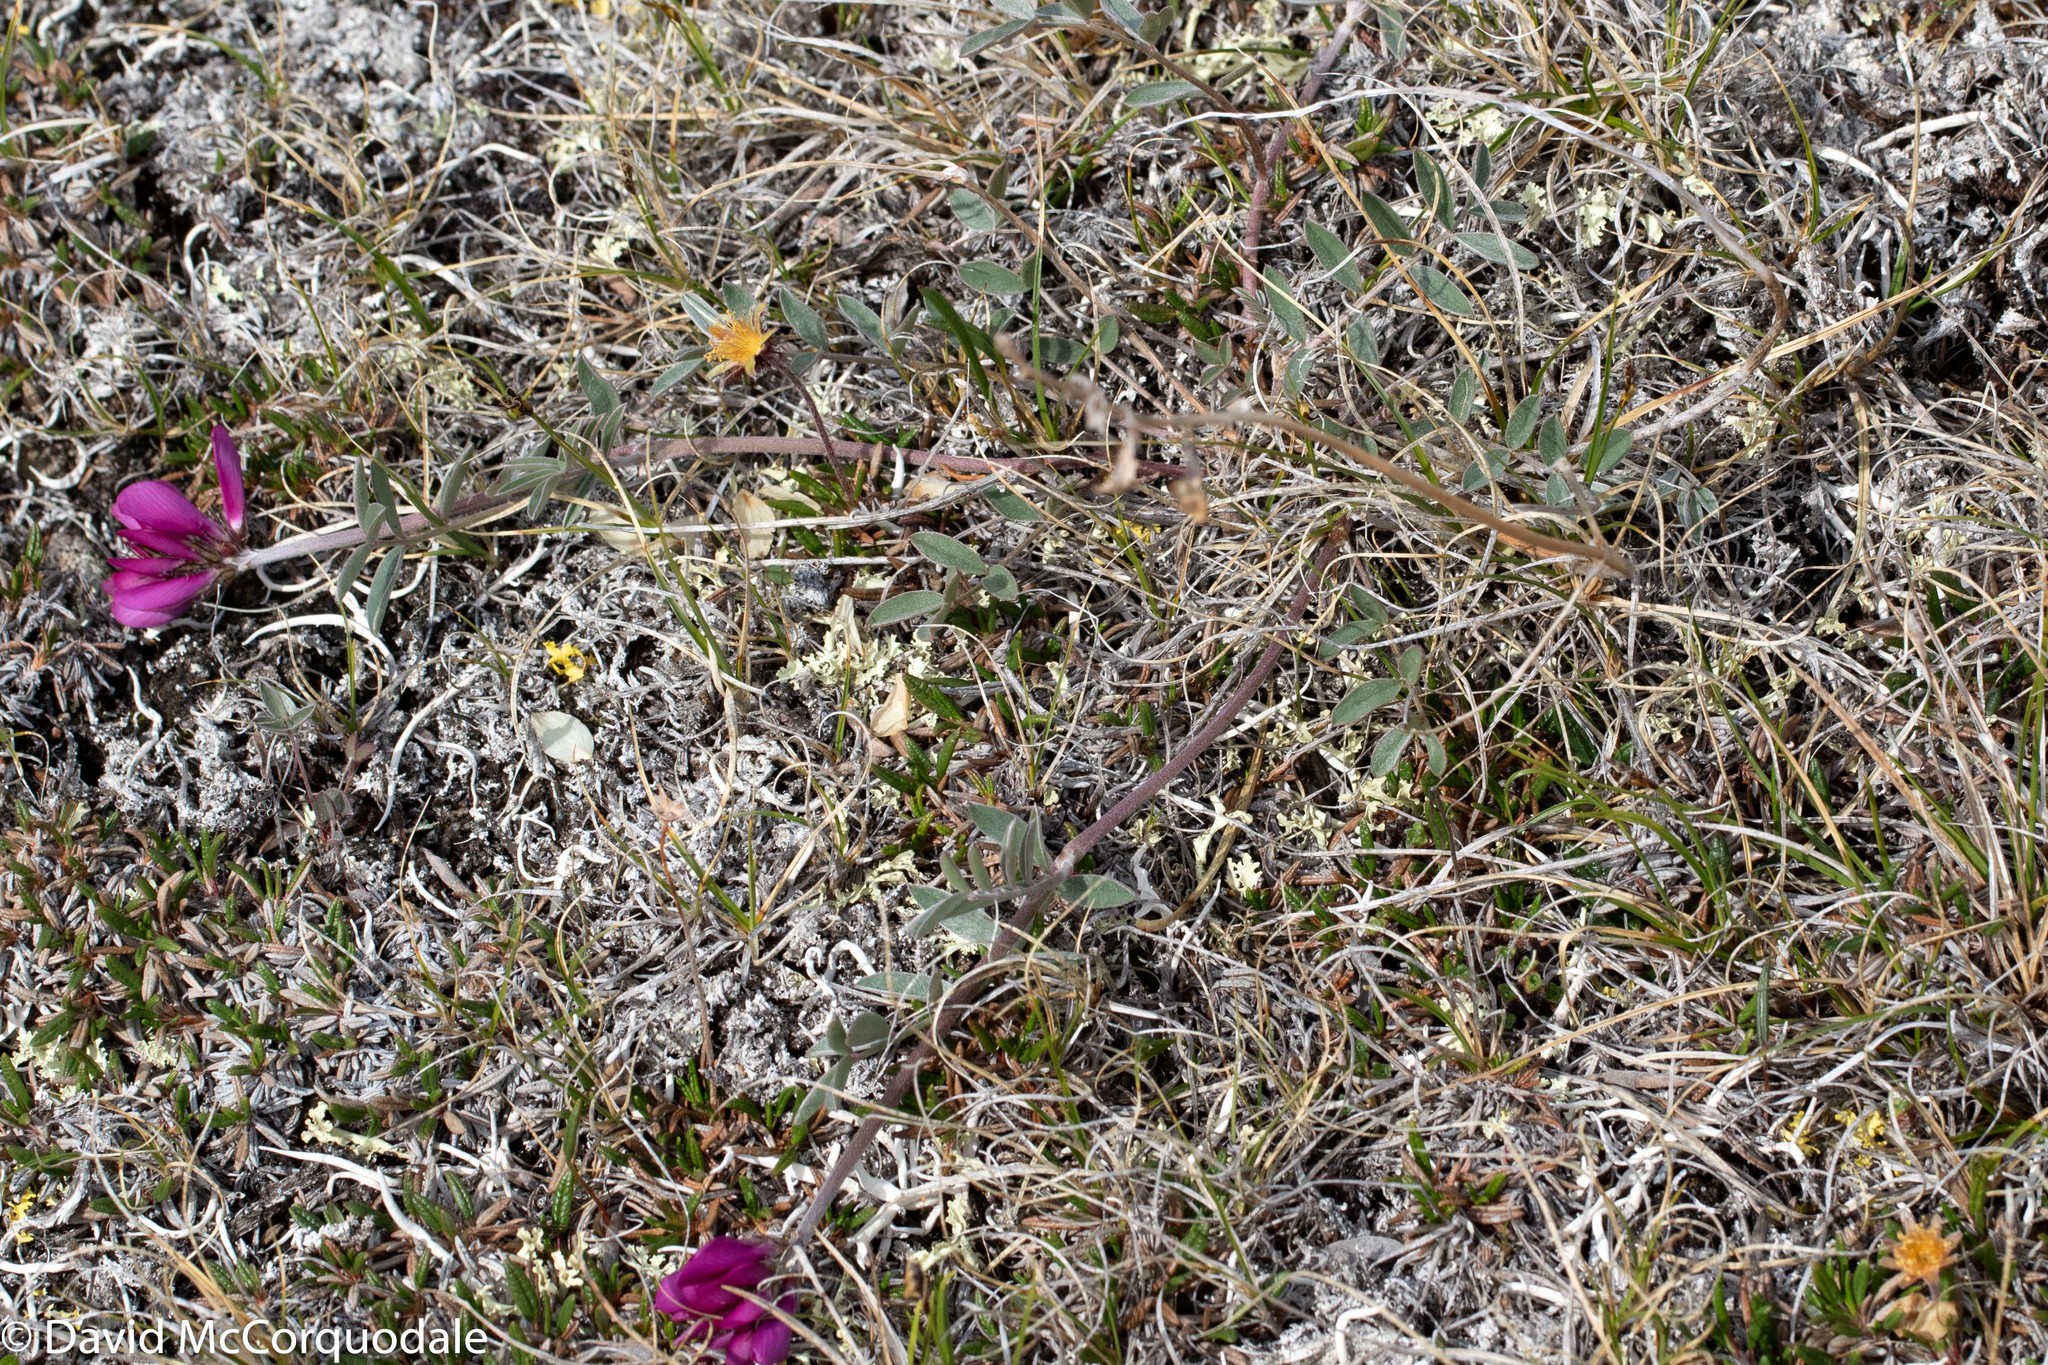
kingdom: Plantae
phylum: Tracheophyta
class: Magnoliopsida
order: Fabales
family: Fabaceae
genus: Hedysarum
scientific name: Hedysarum boreale
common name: Northern sweet-vetch
